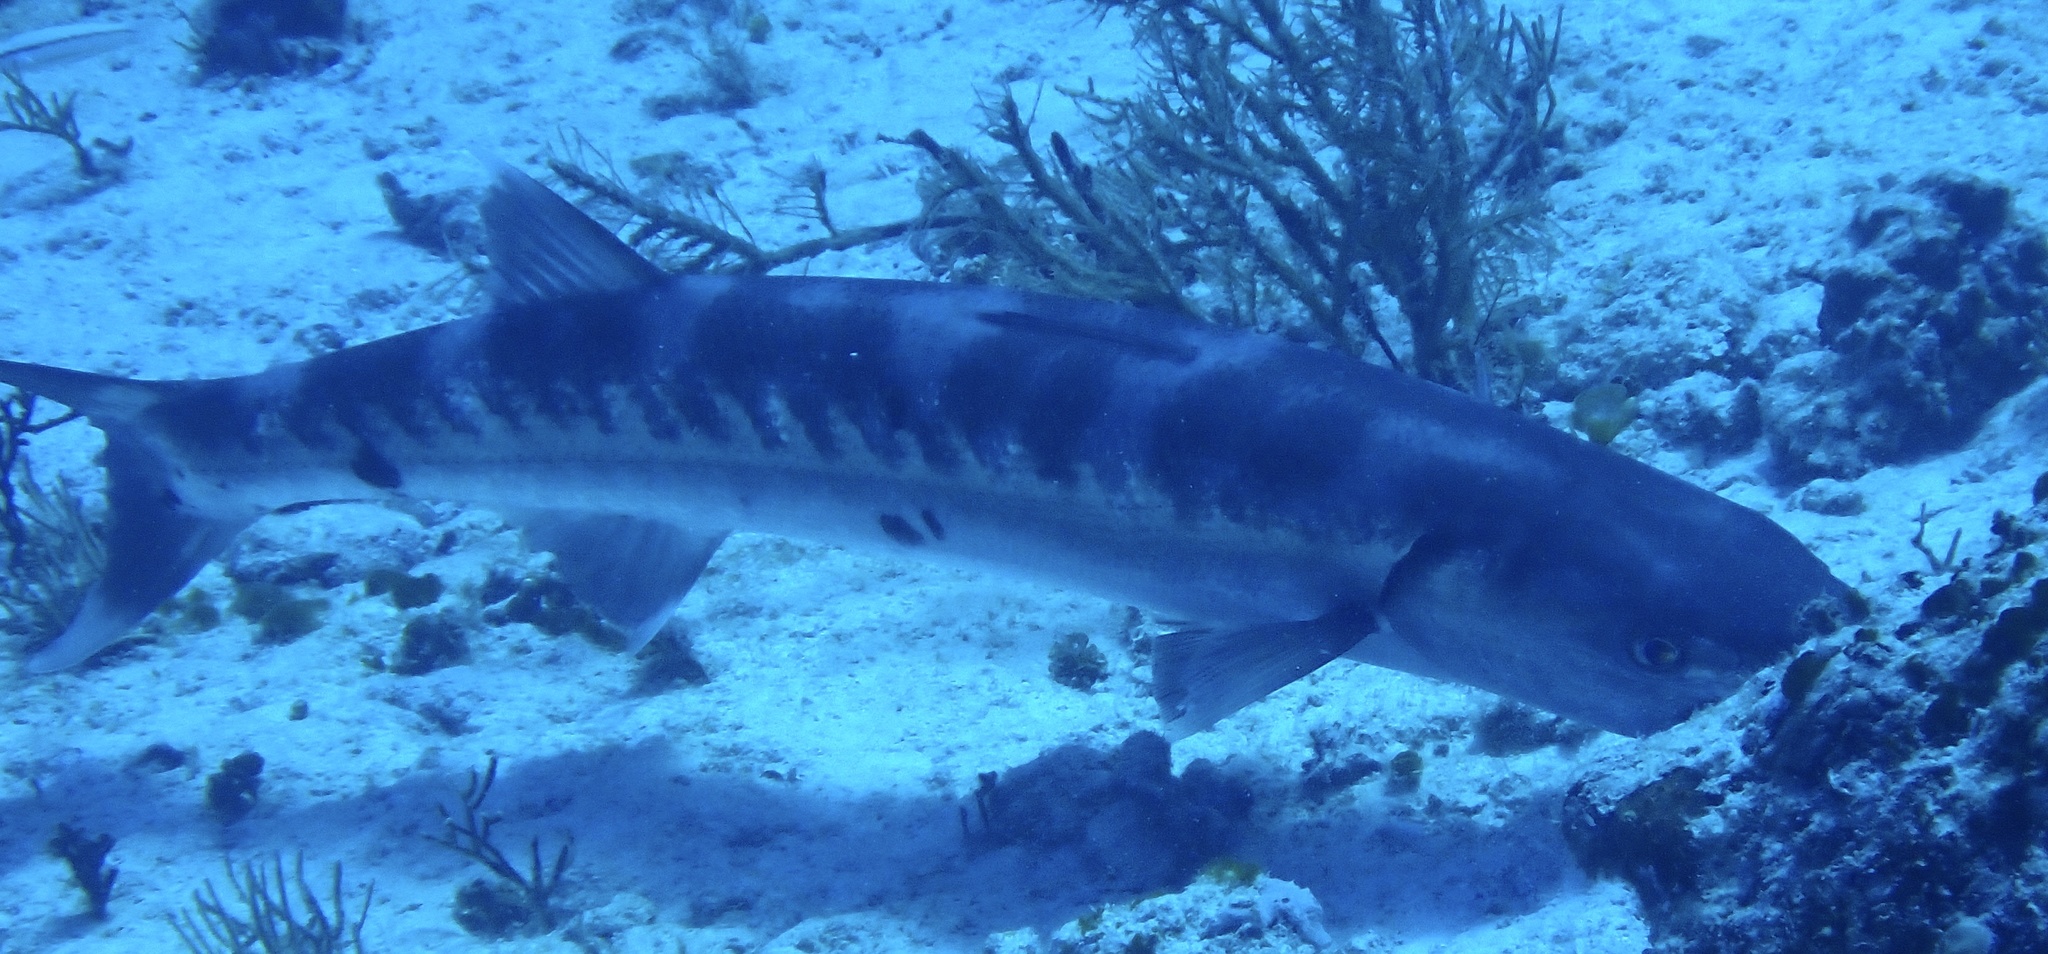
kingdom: Animalia
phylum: Chordata
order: Perciformes
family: Sphyraenidae
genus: Sphyraena
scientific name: Sphyraena barracuda
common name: Great barracuda
